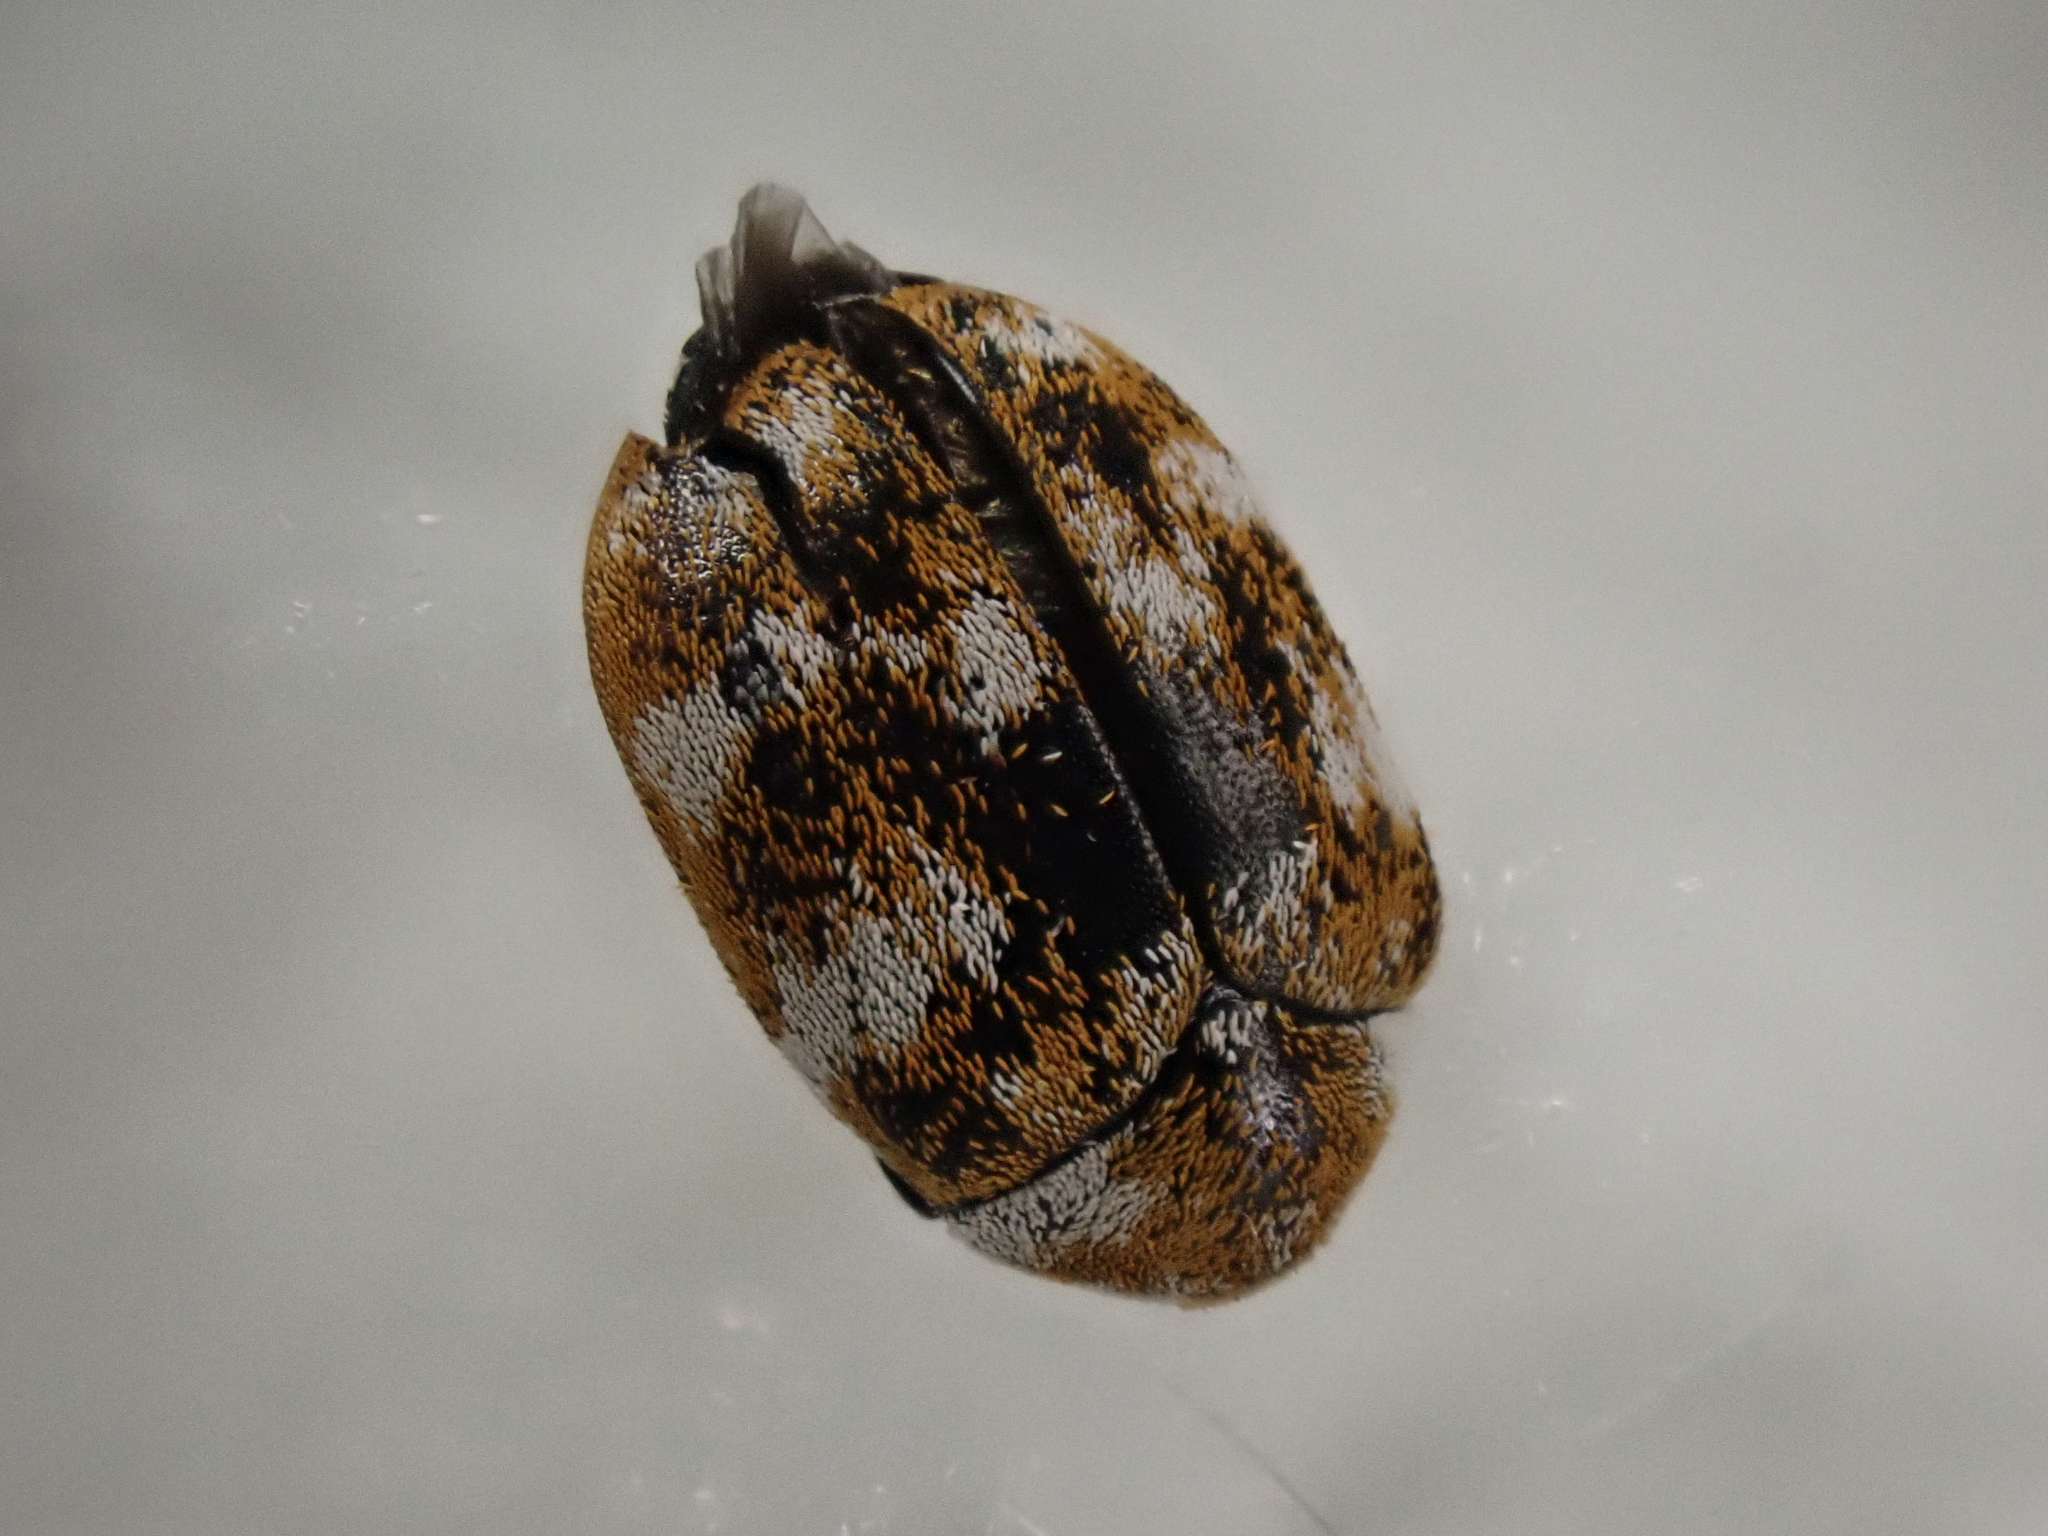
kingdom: Animalia
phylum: Arthropoda
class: Insecta
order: Coleoptera
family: Dermestidae
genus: Anthrenus
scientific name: Anthrenus verbasci
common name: Varied carpet beetle
